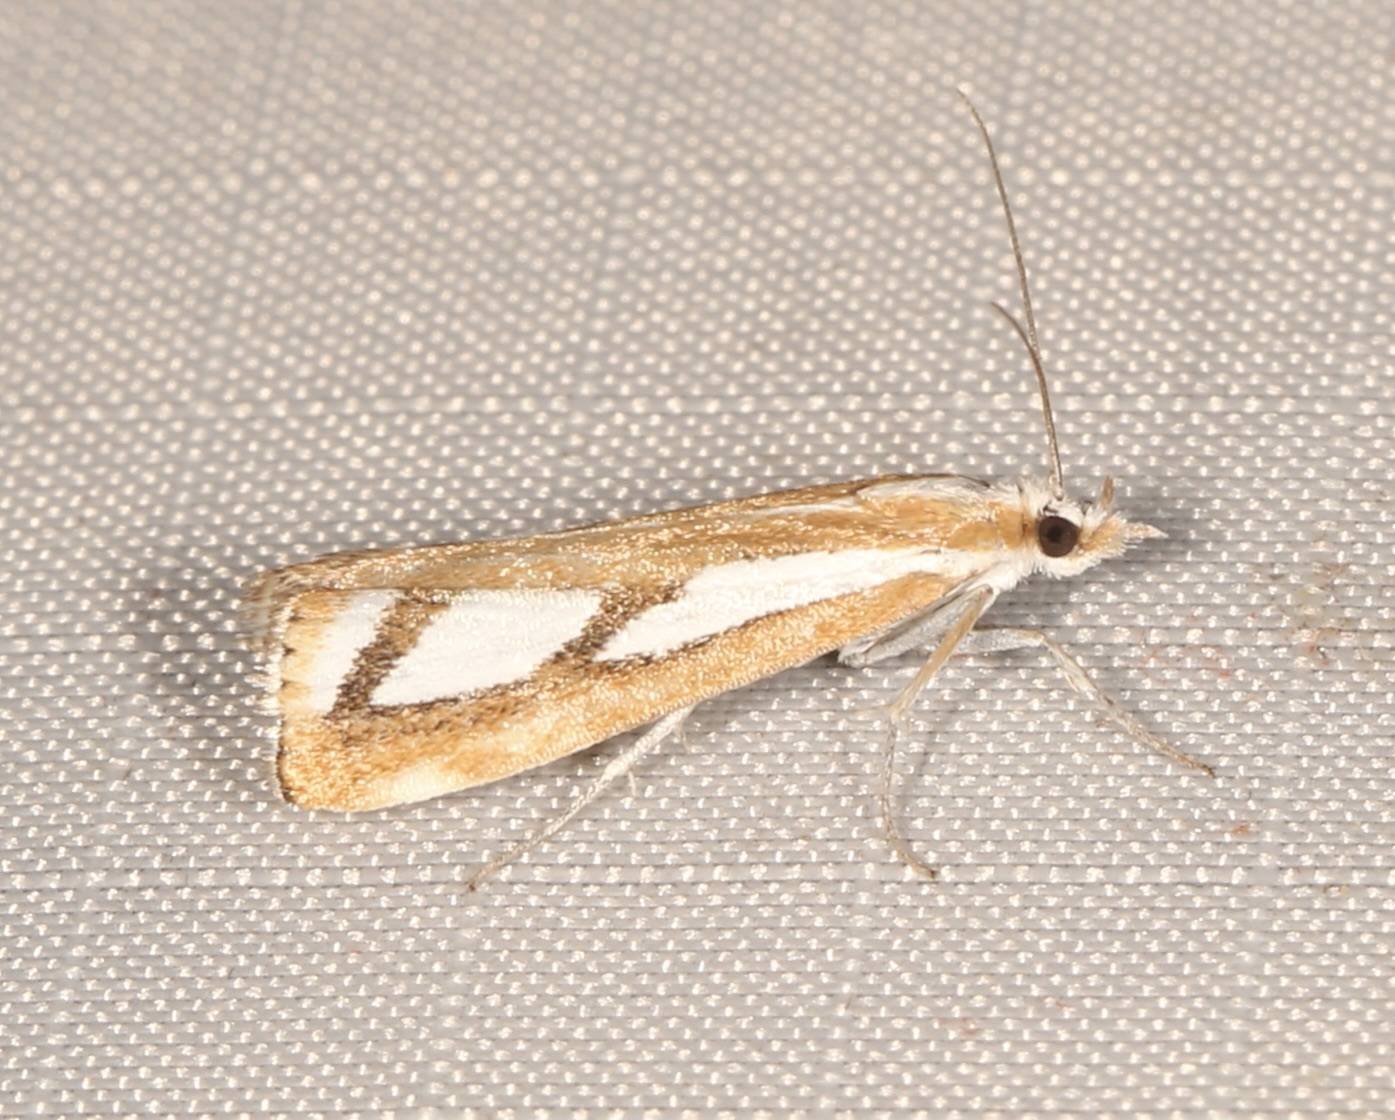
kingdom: Animalia
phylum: Arthropoda
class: Insecta
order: Lepidoptera
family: Crambidae
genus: Catoptria
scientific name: Catoptria latiradiellus
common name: Two-banded catoptria moth
